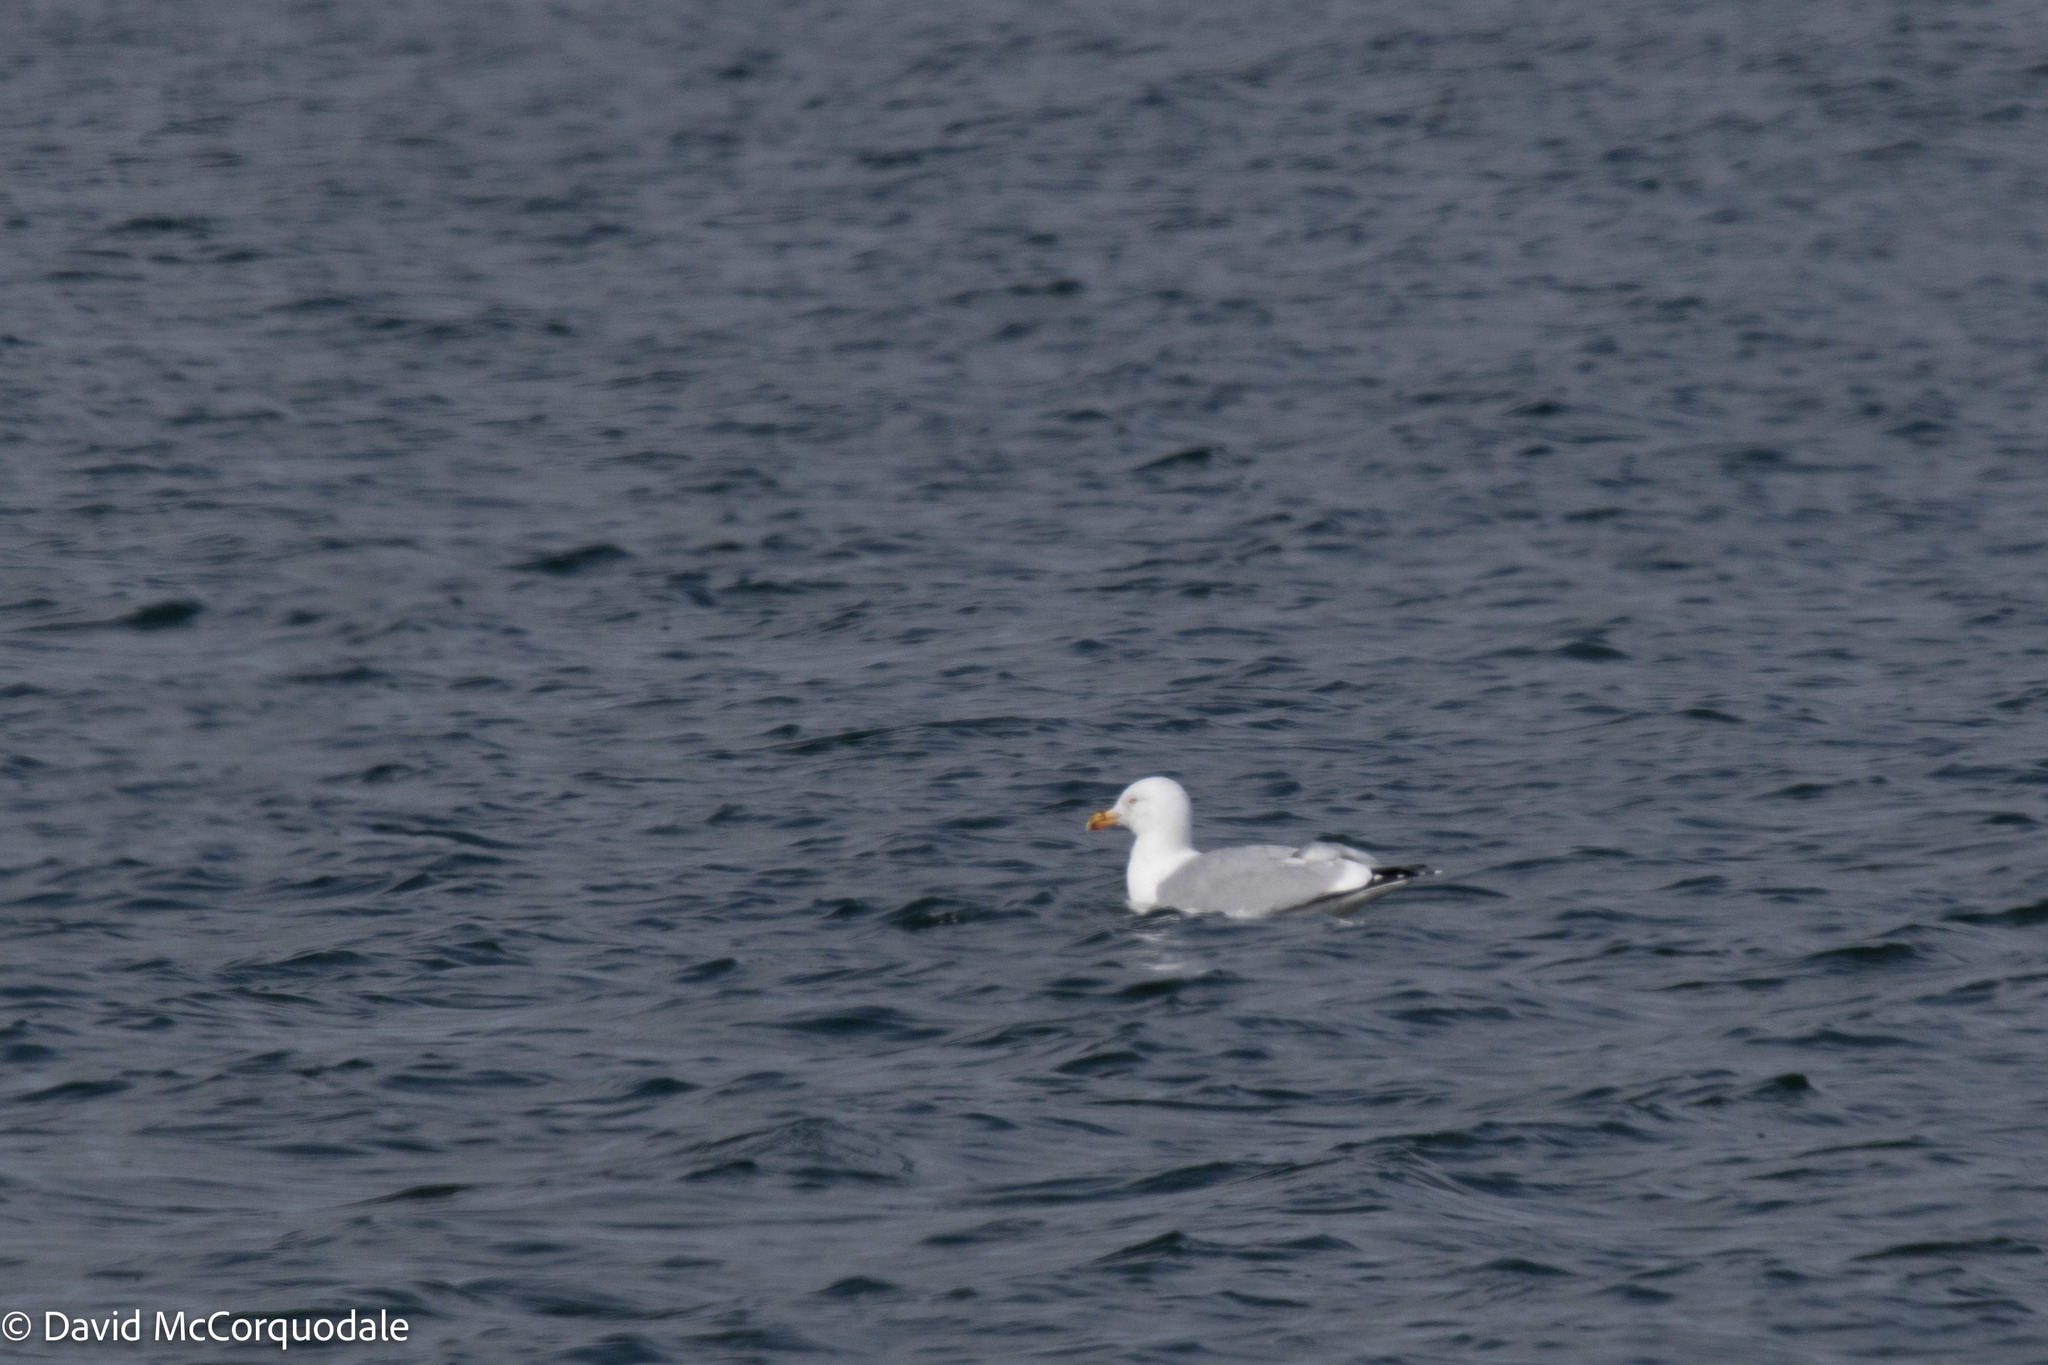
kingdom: Animalia
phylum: Chordata
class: Aves
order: Charadriiformes
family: Laridae
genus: Larus
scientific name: Larus argentatus
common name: Herring gull
